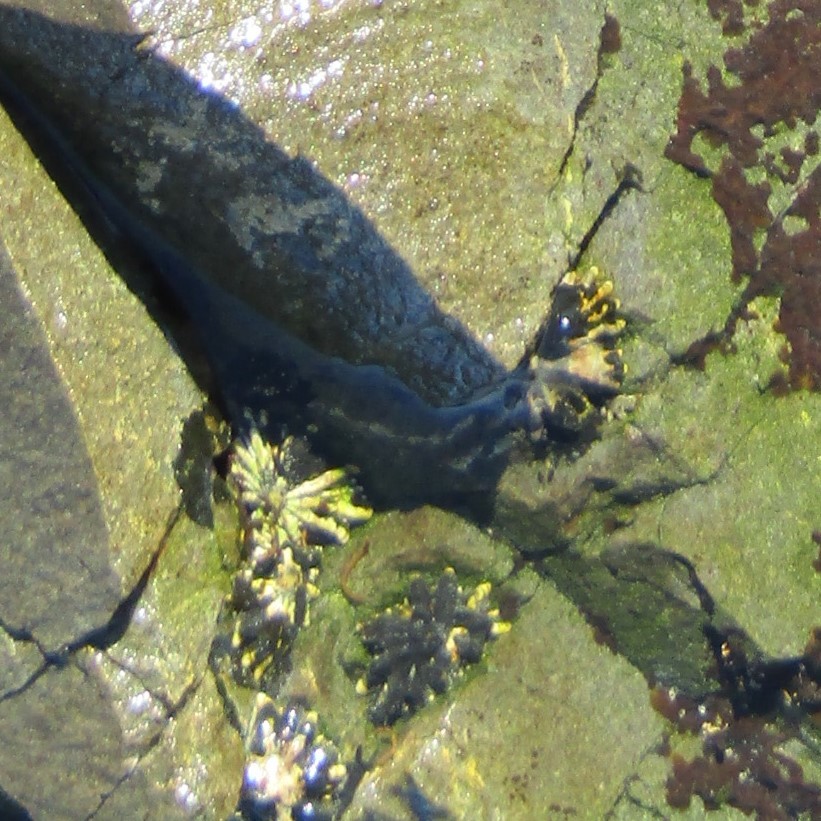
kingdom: Animalia
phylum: Mollusca
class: Gastropoda
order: Siphonariida
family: Siphonariidae
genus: Siphonaria
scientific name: Siphonaria australis
